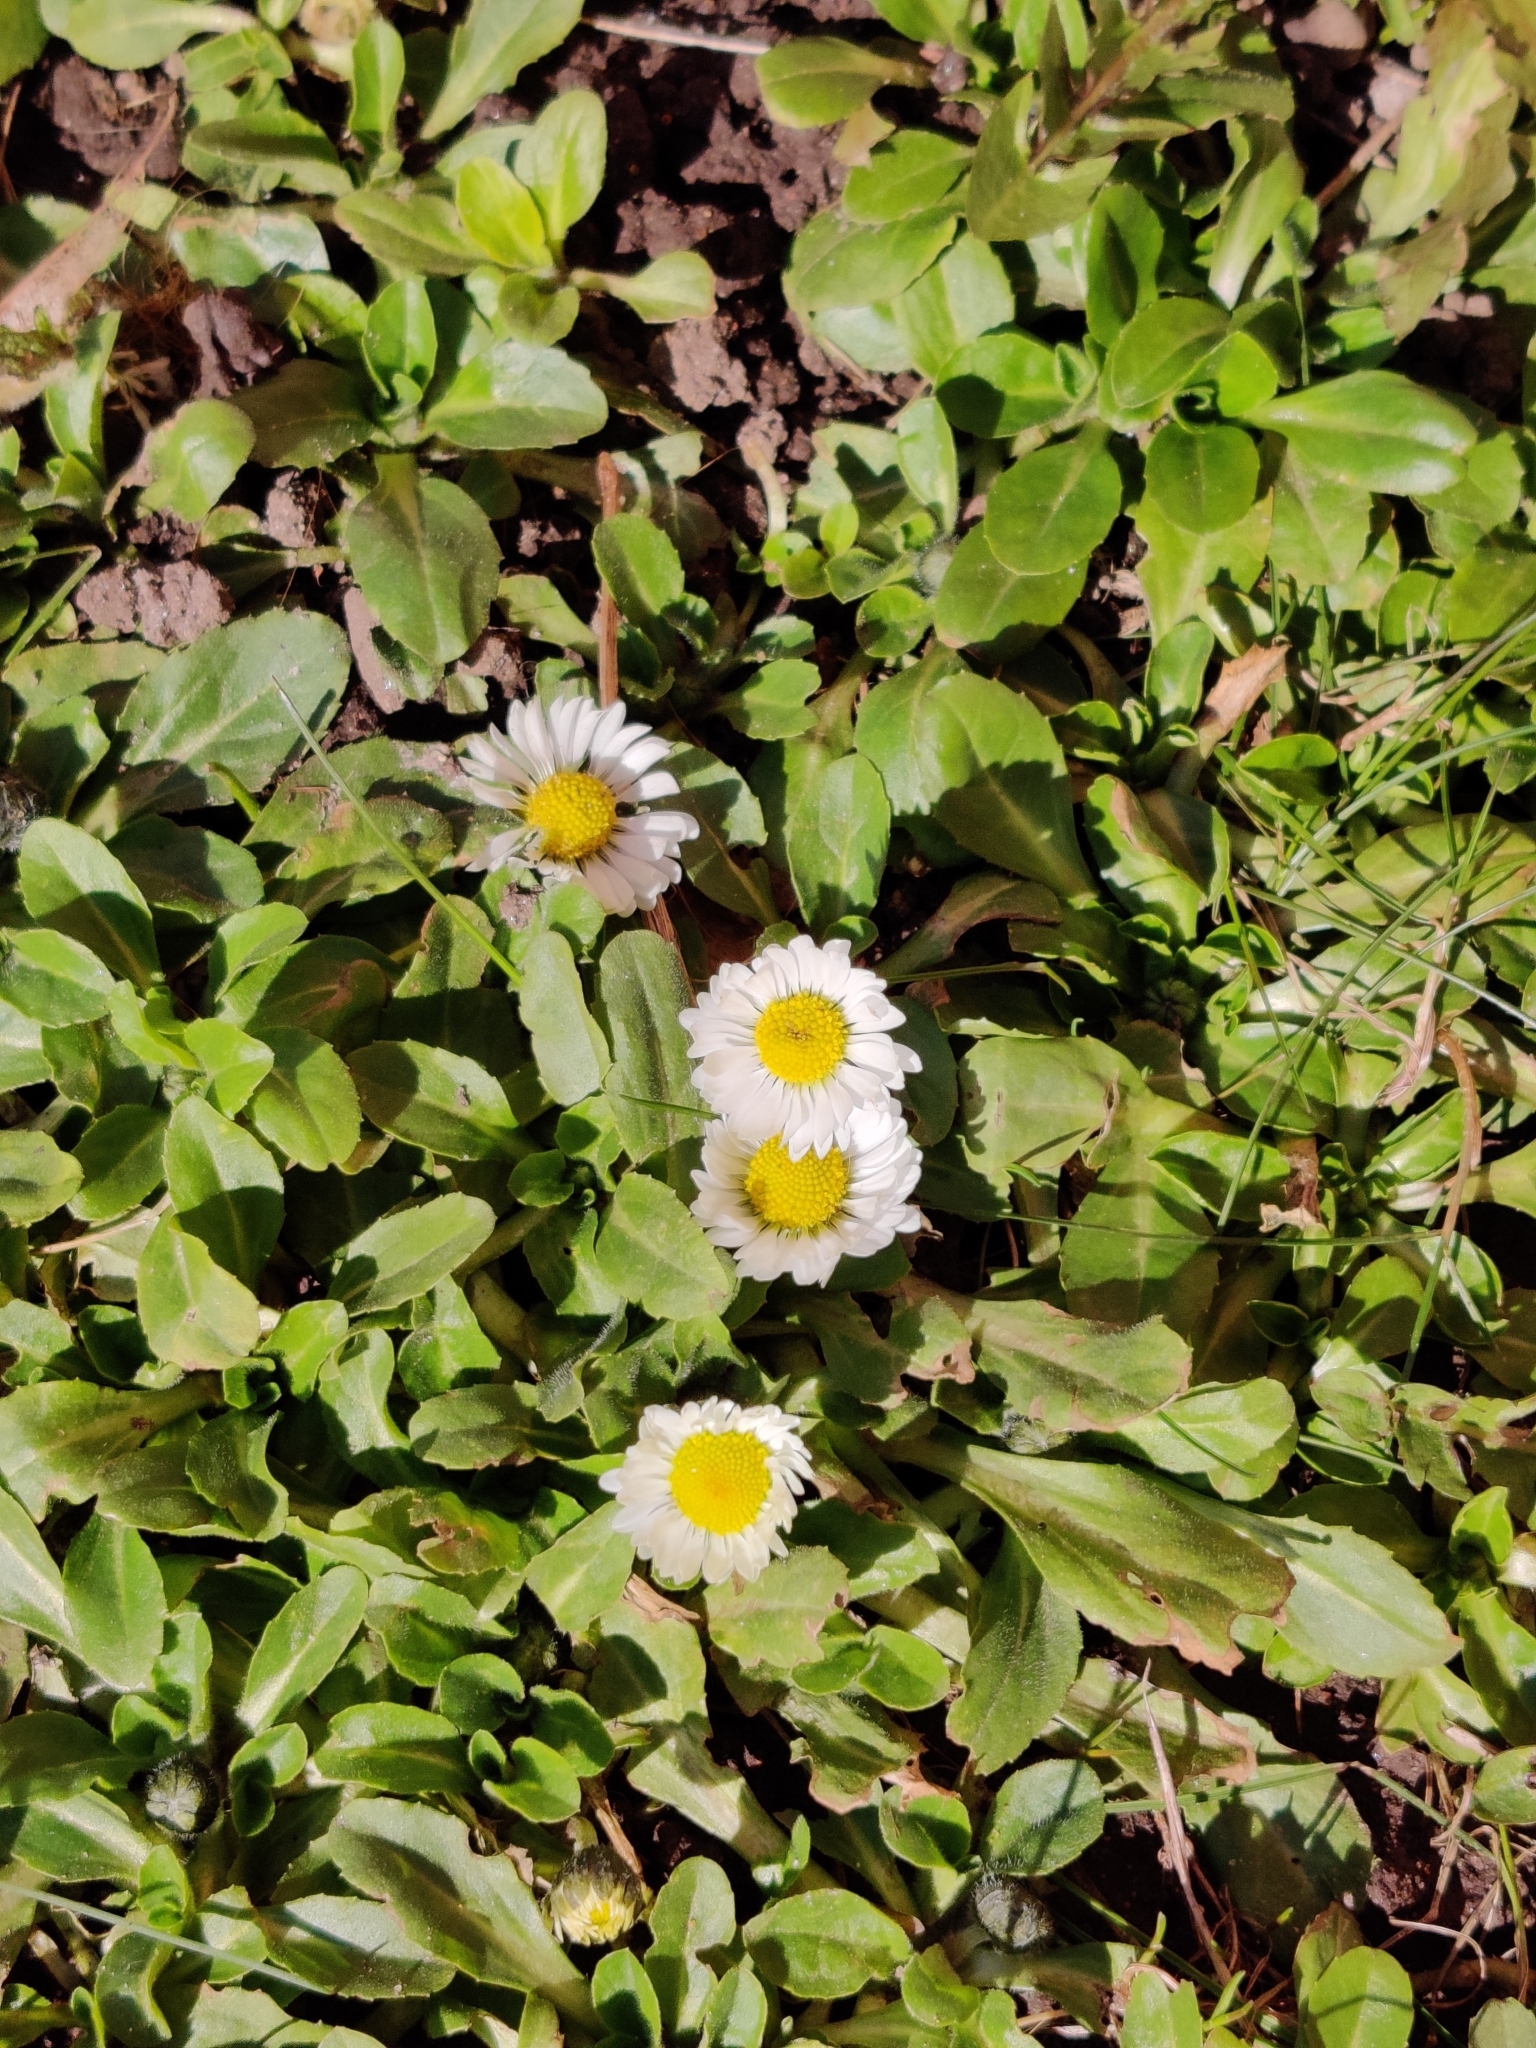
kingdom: Plantae
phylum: Tracheophyta
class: Magnoliopsida
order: Asterales
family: Asteraceae
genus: Bellis
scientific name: Bellis perennis
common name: Lawndaisy
